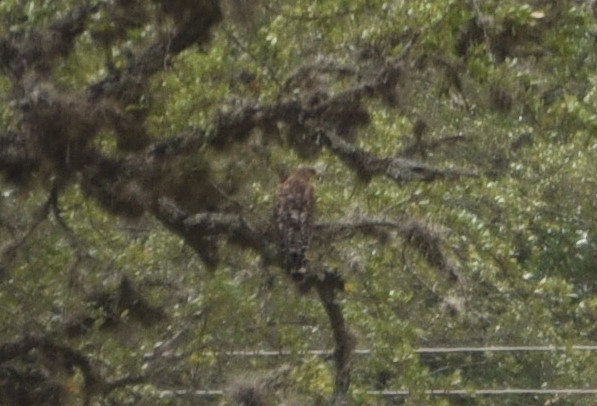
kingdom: Animalia
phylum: Chordata
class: Aves
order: Accipitriformes
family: Accipitridae
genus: Buteo
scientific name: Buteo lineatus
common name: Red-shouldered hawk
